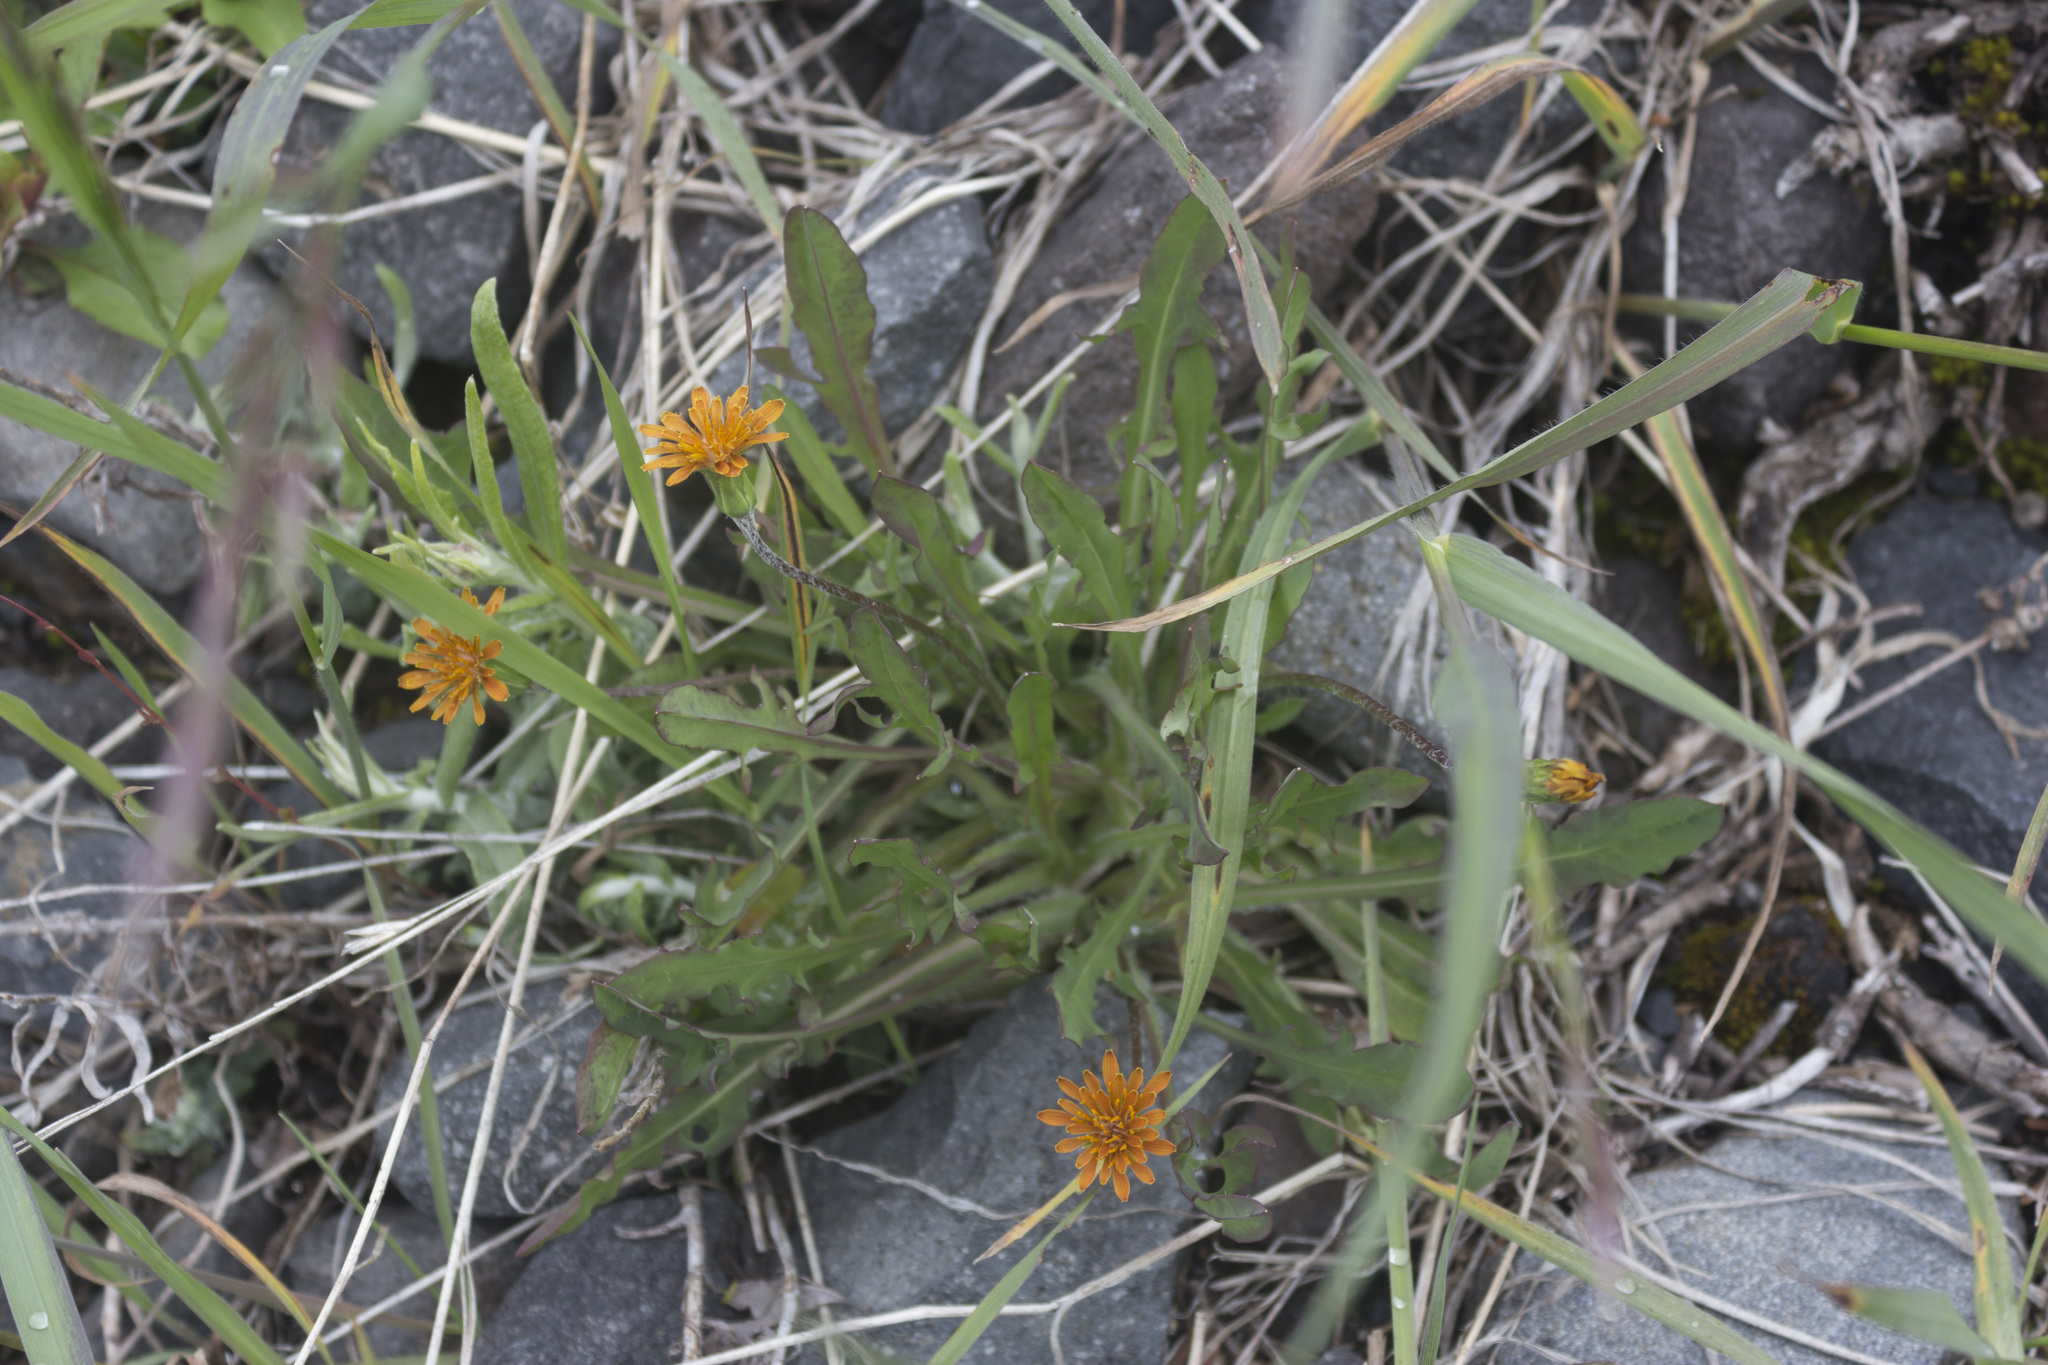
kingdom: Plantae
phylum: Tracheophyta
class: Magnoliopsida
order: Asterales
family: Asteraceae
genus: Agoseris
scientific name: Agoseris aurantiaca
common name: Mountain agoseris
